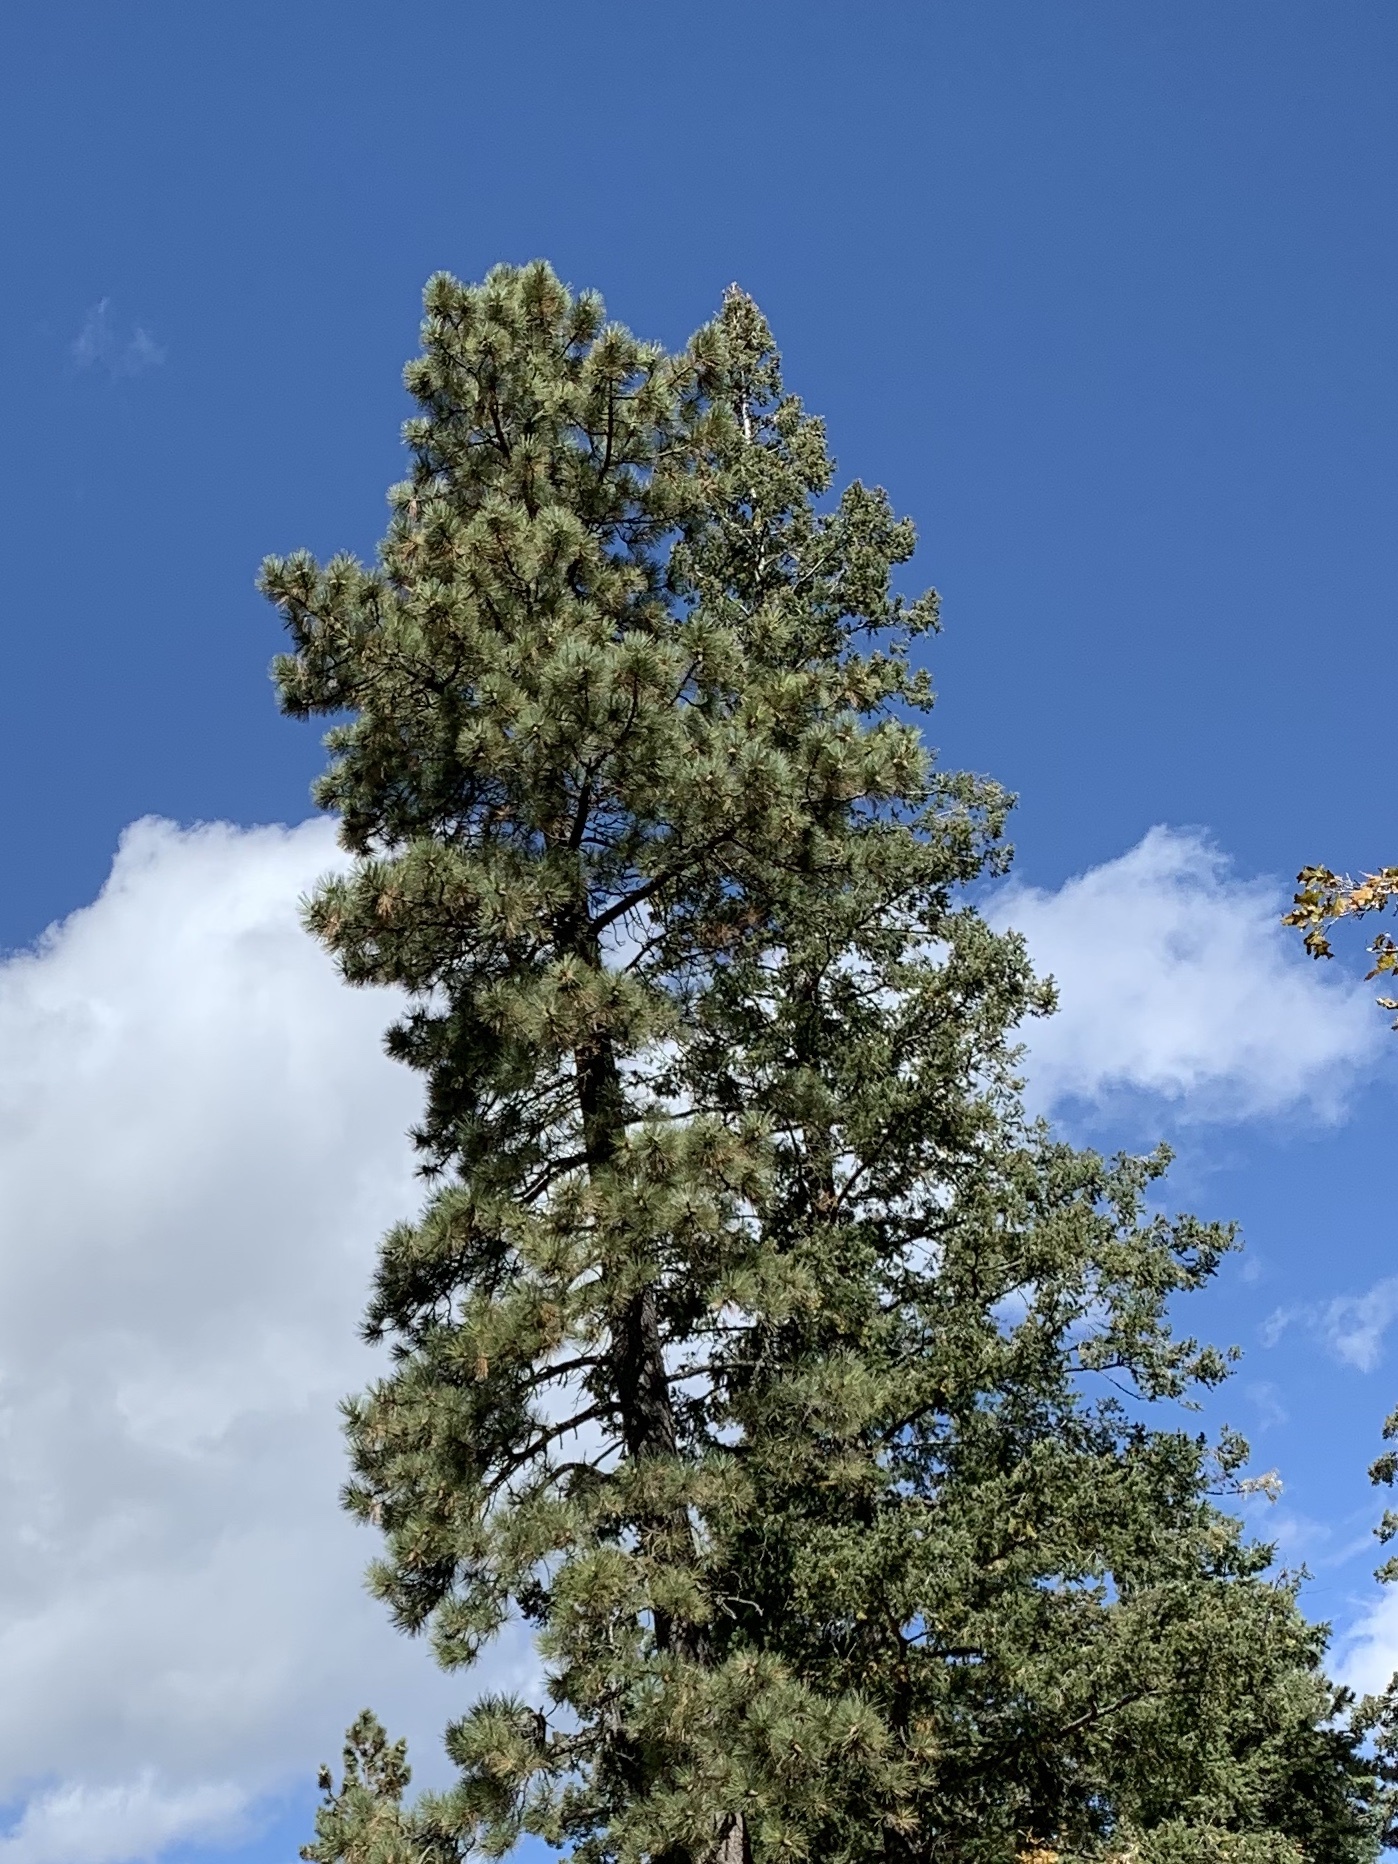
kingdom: Plantae
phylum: Tracheophyta
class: Pinopsida
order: Pinales
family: Pinaceae
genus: Pinus
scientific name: Pinus ponderosa
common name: Western yellow-pine
